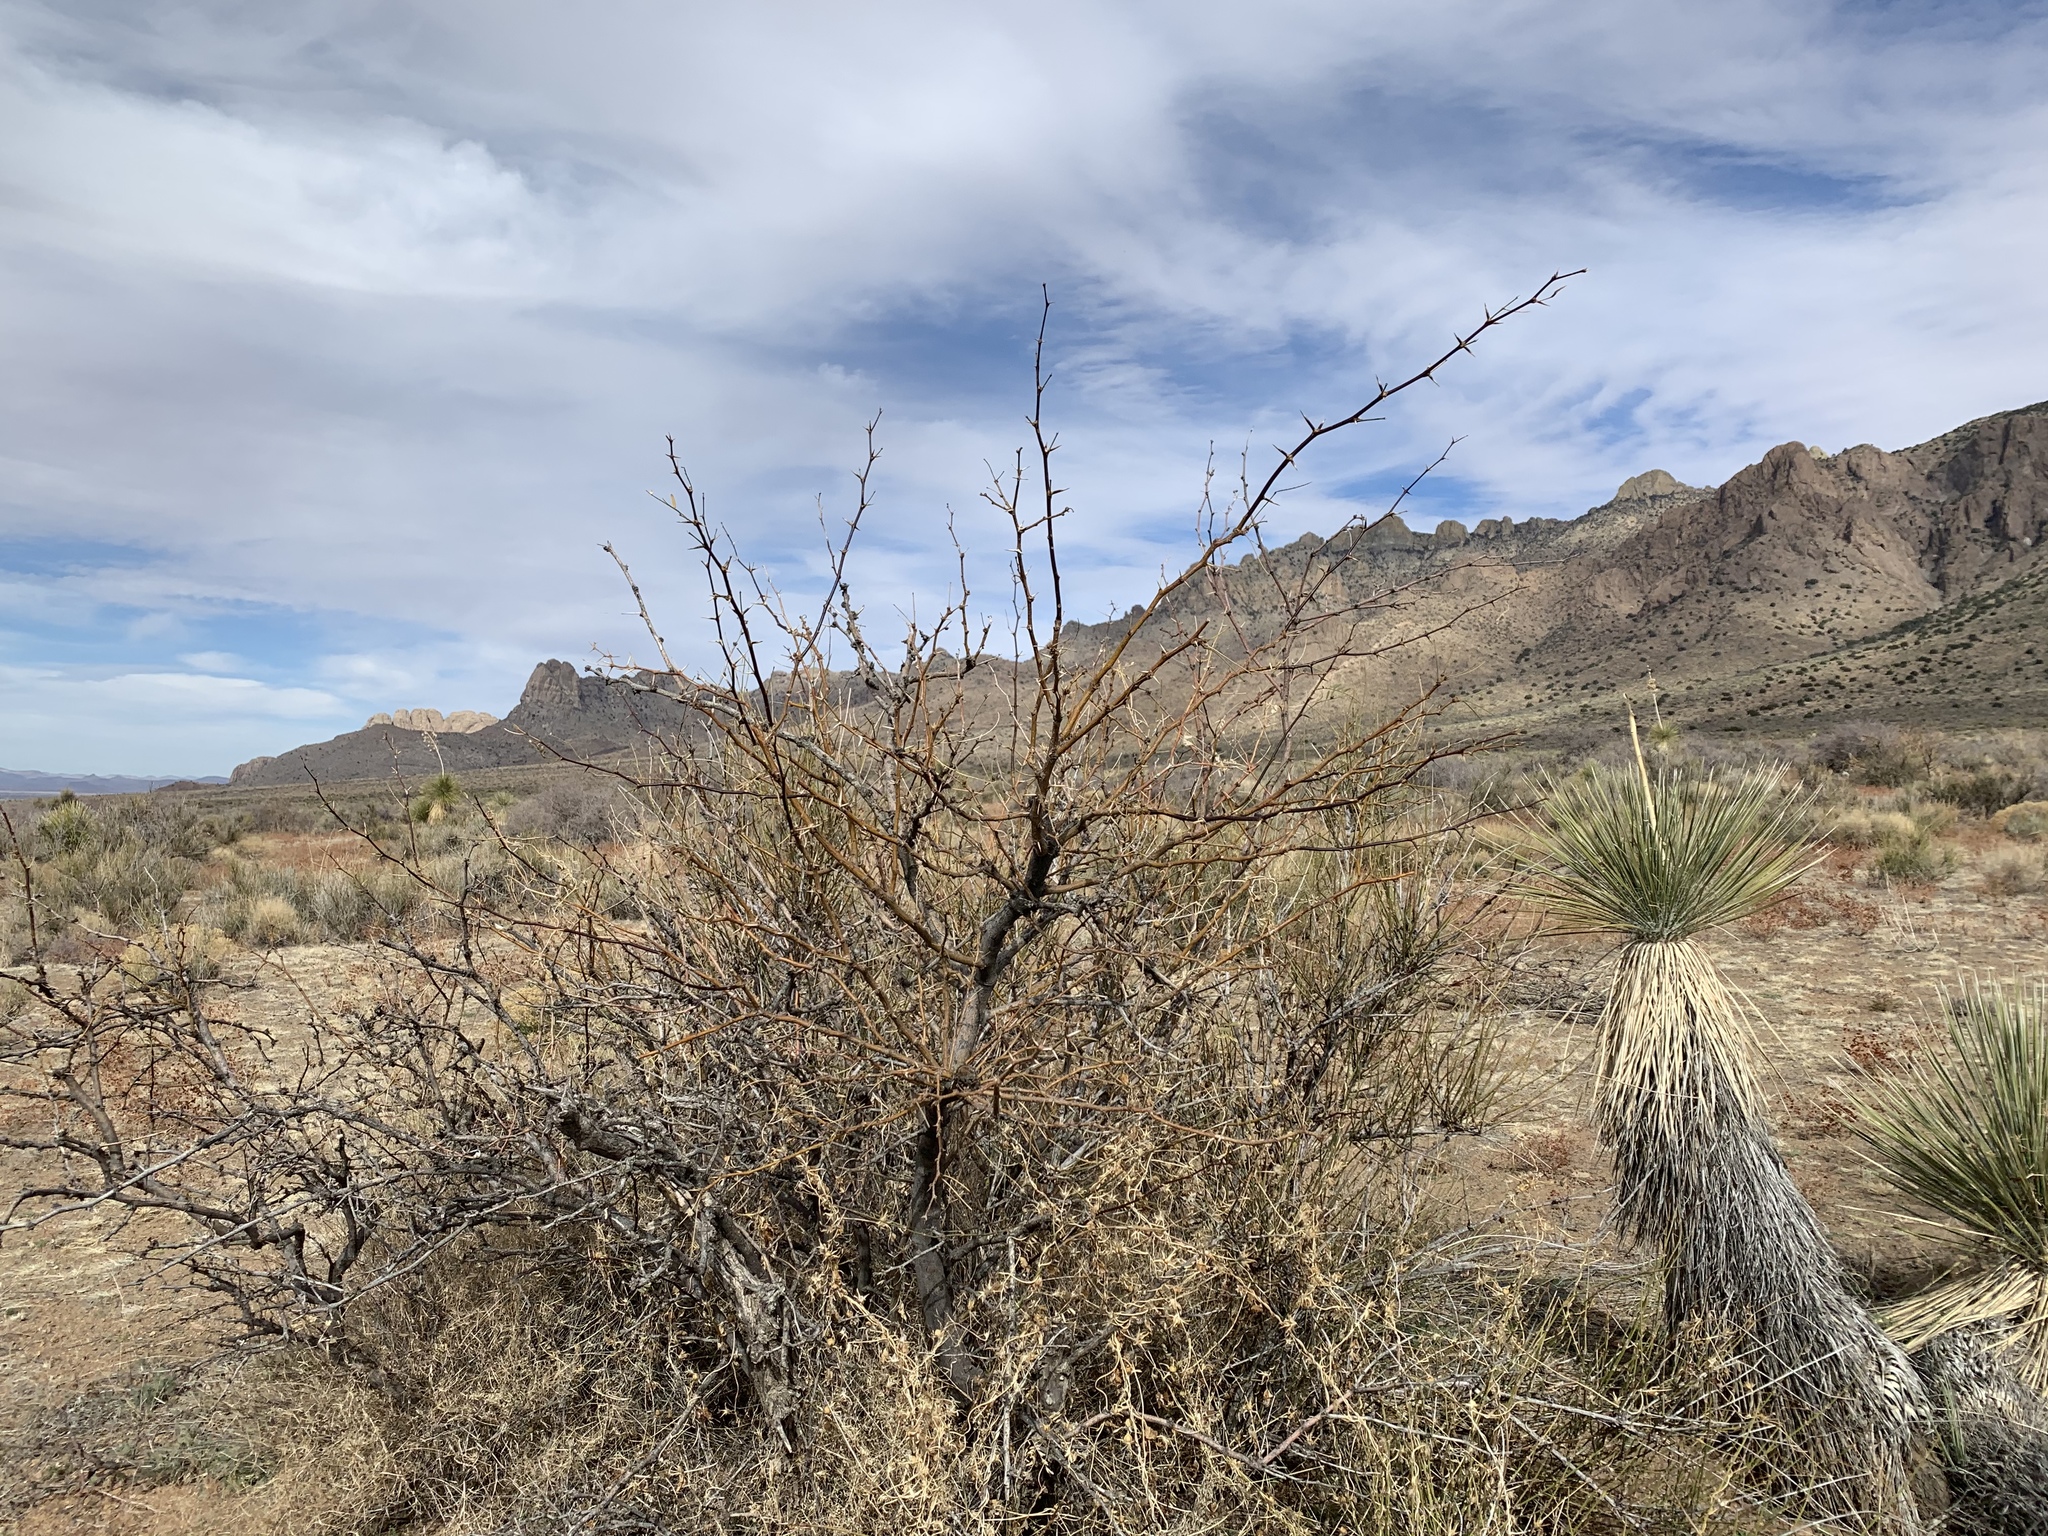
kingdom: Plantae
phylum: Tracheophyta
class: Magnoliopsida
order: Fabales
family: Fabaceae
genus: Prosopis
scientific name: Prosopis glandulosa
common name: Honey mesquite
